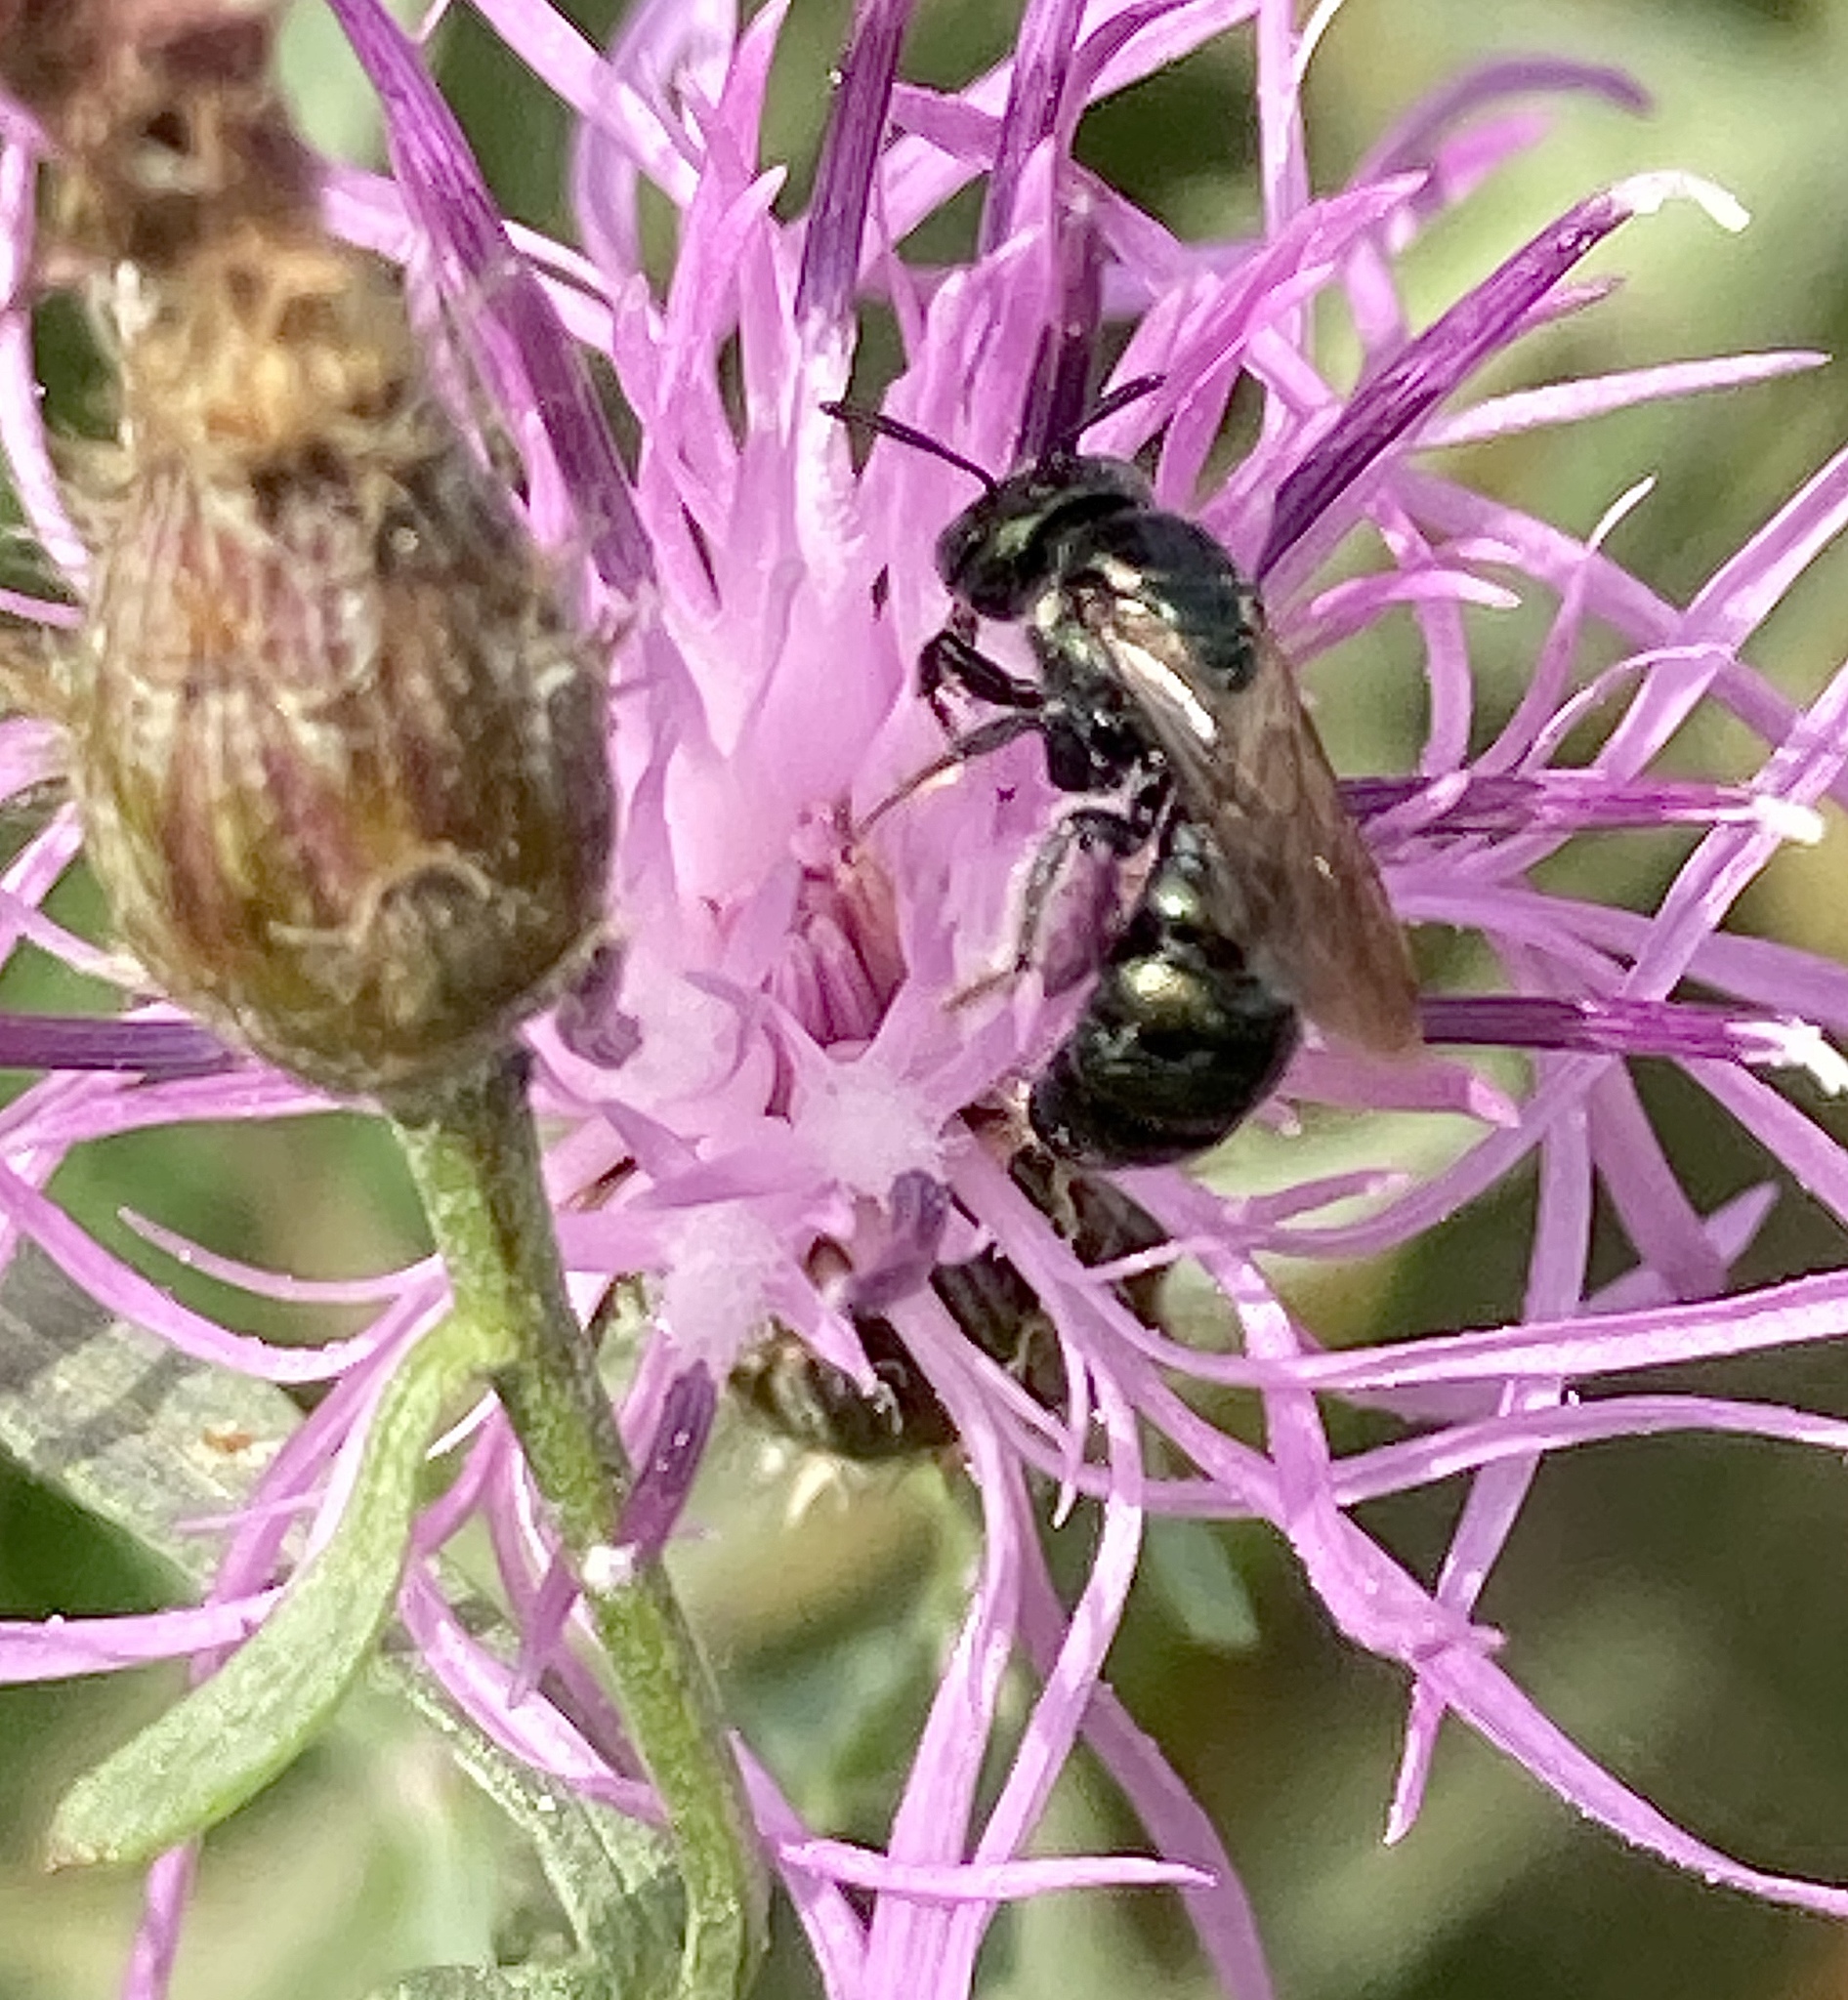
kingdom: Animalia
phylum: Arthropoda
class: Insecta
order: Hymenoptera
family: Apidae
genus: Zadontomerus
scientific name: Zadontomerus
